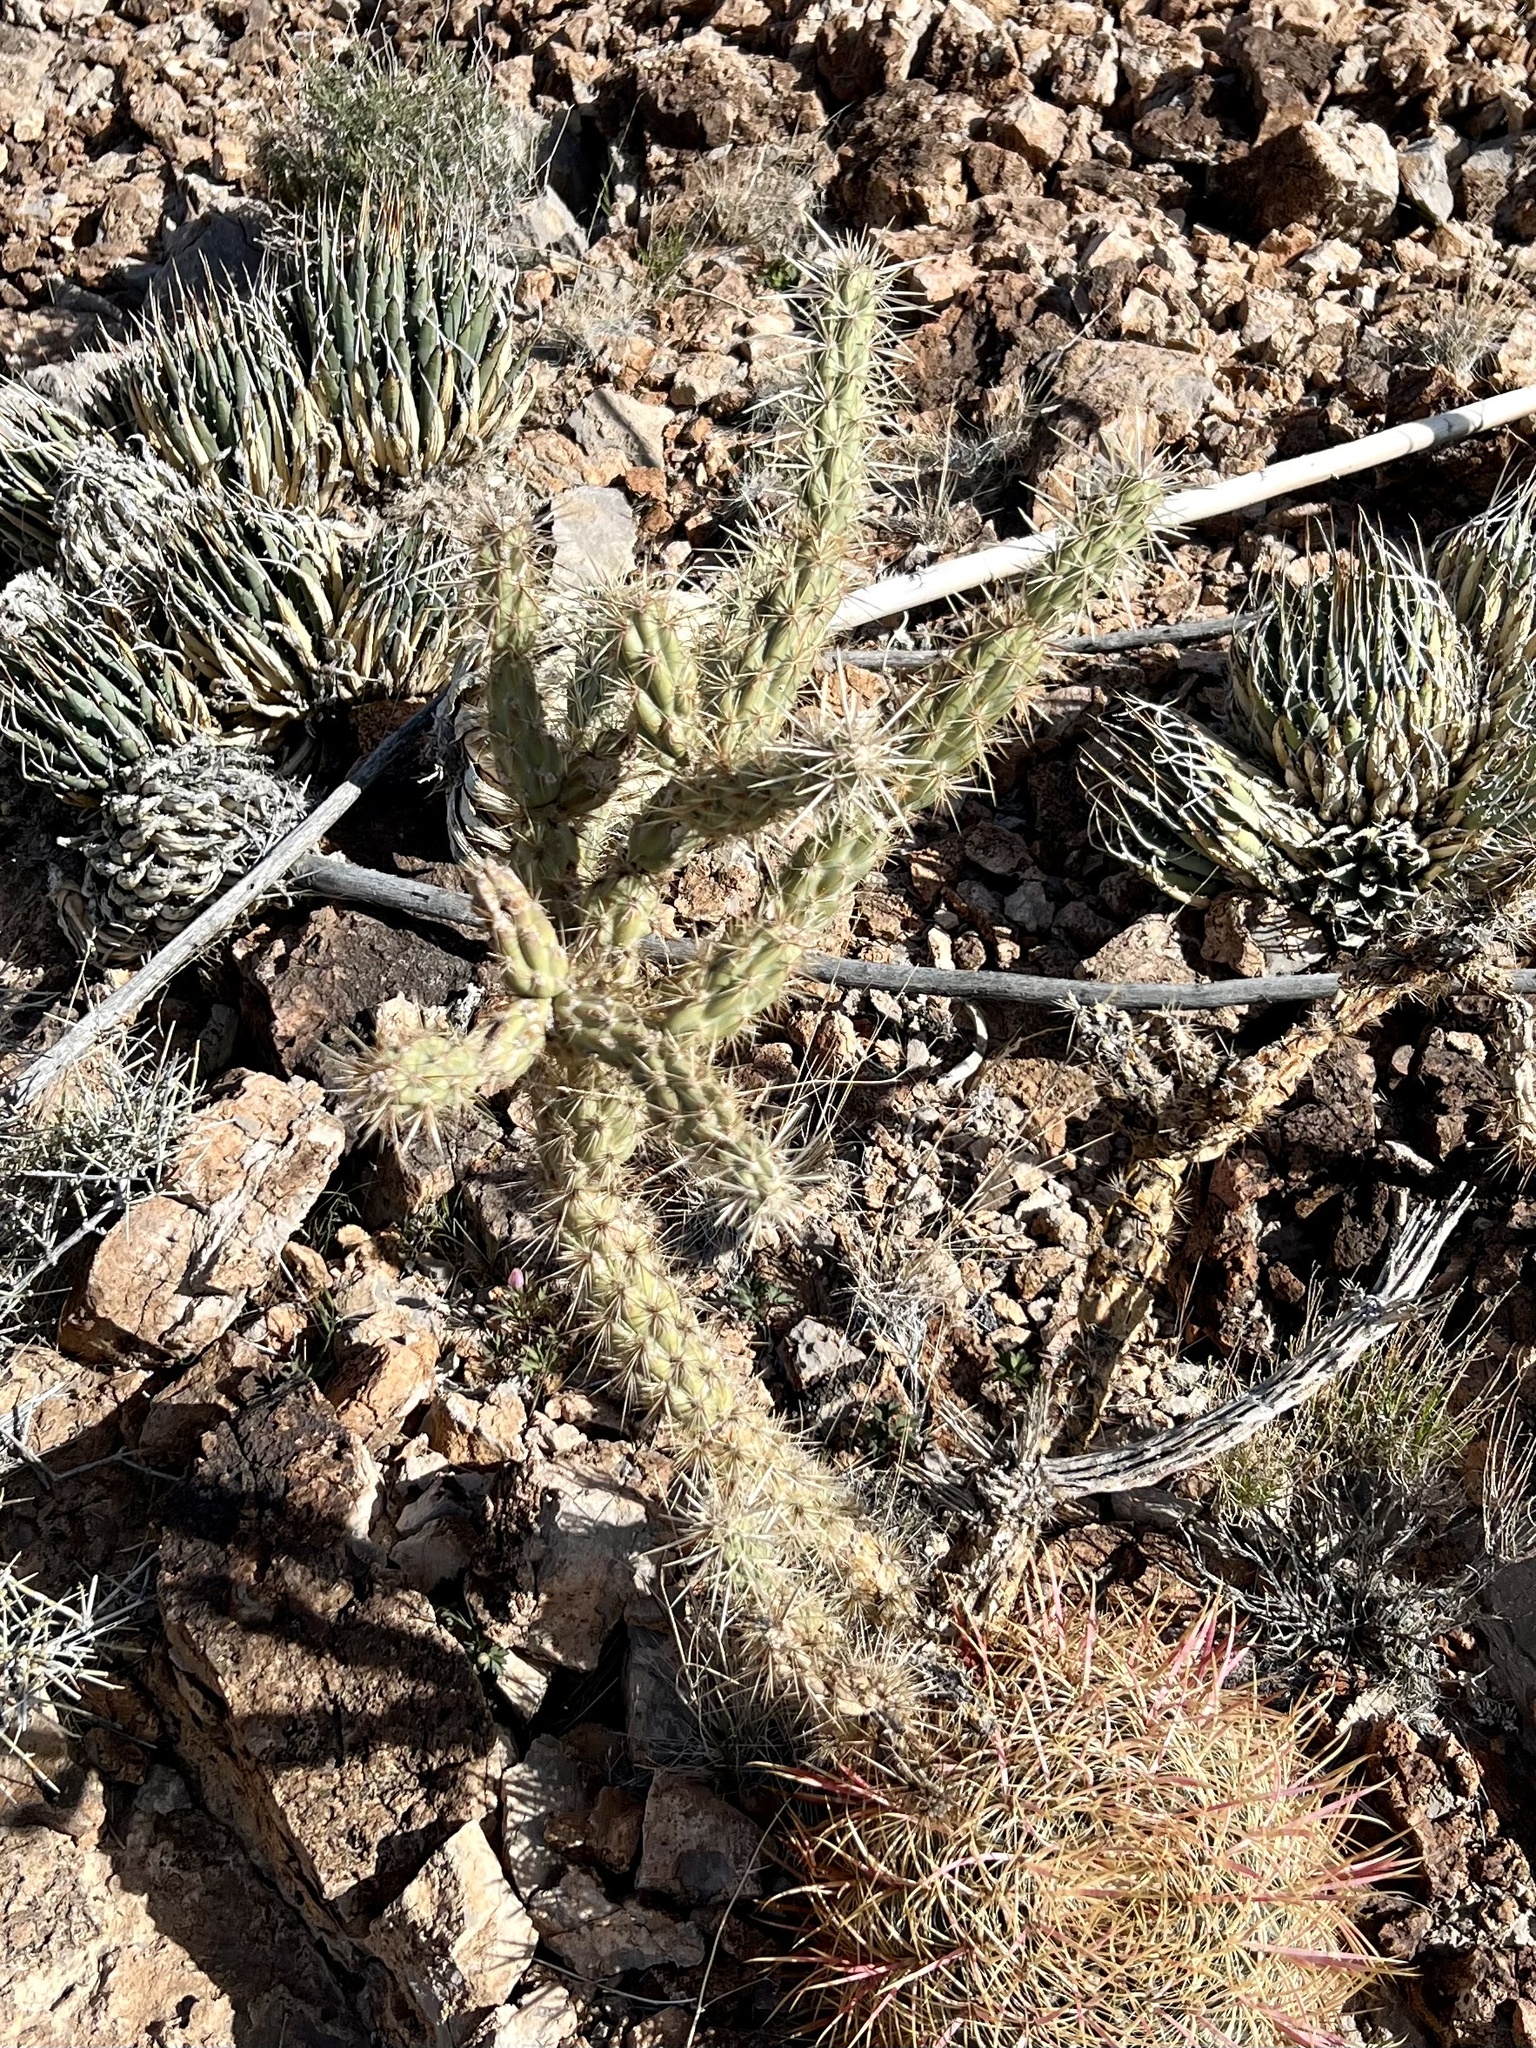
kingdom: Plantae
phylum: Tracheophyta
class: Magnoliopsida
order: Caryophyllales
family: Cactaceae
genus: Cylindropuntia
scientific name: Cylindropuntia acanthocarpa
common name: Buckhorn cholla
